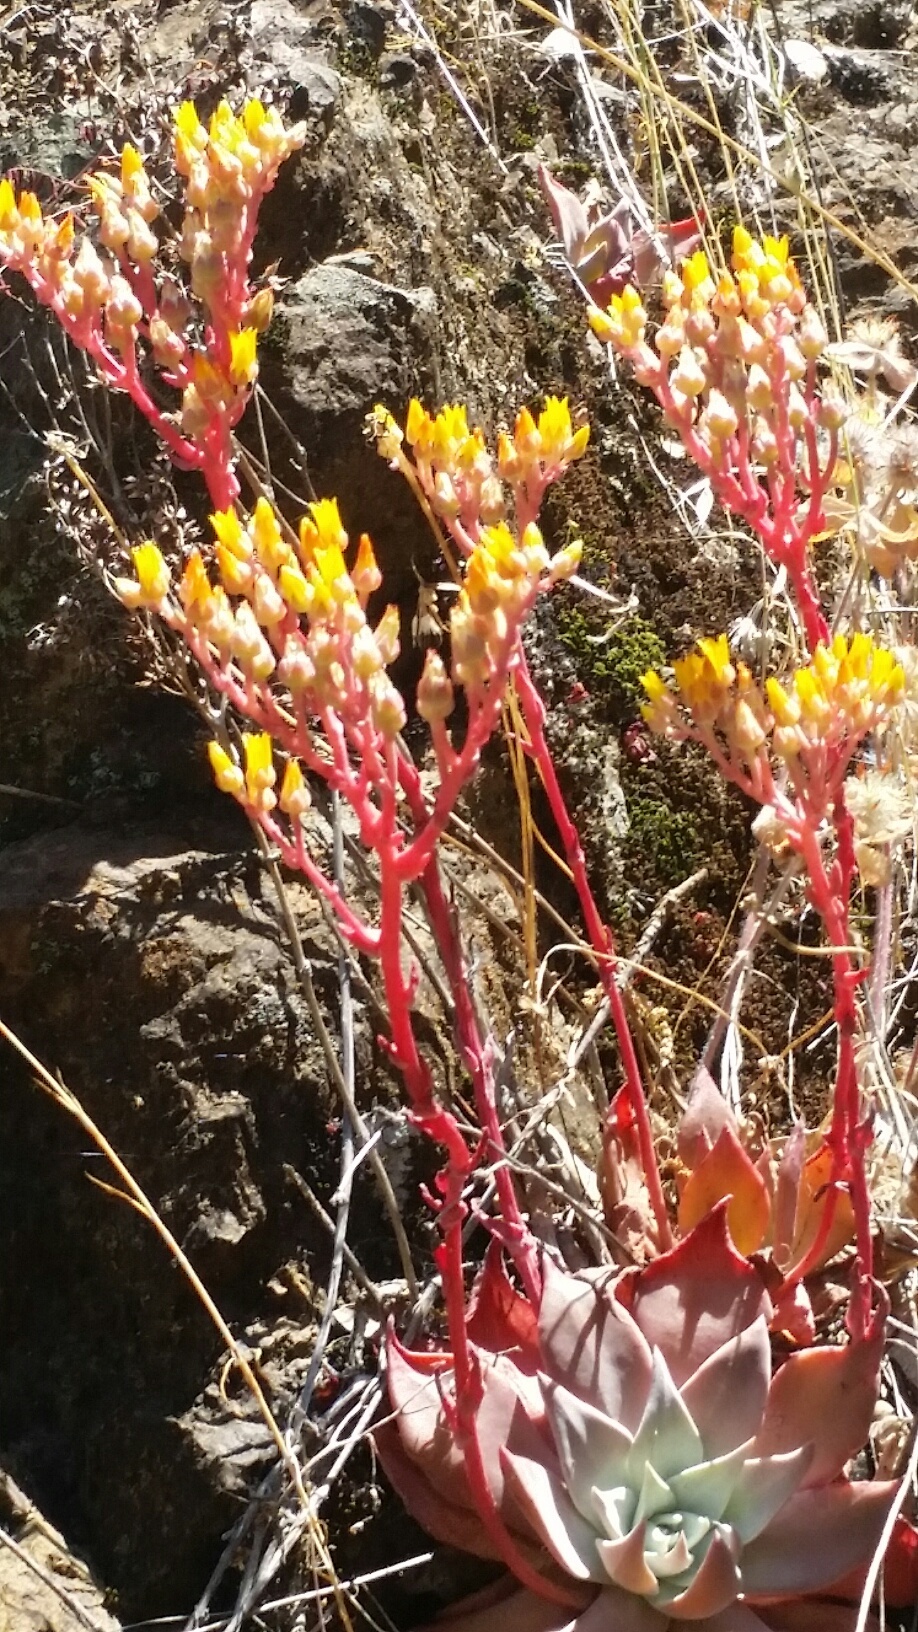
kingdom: Plantae
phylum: Tracheophyta
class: Magnoliopsida
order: Saxifragales
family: Crassulaceae
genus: Dudleya
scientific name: Dudleya cymosa
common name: Canyon dudleya
